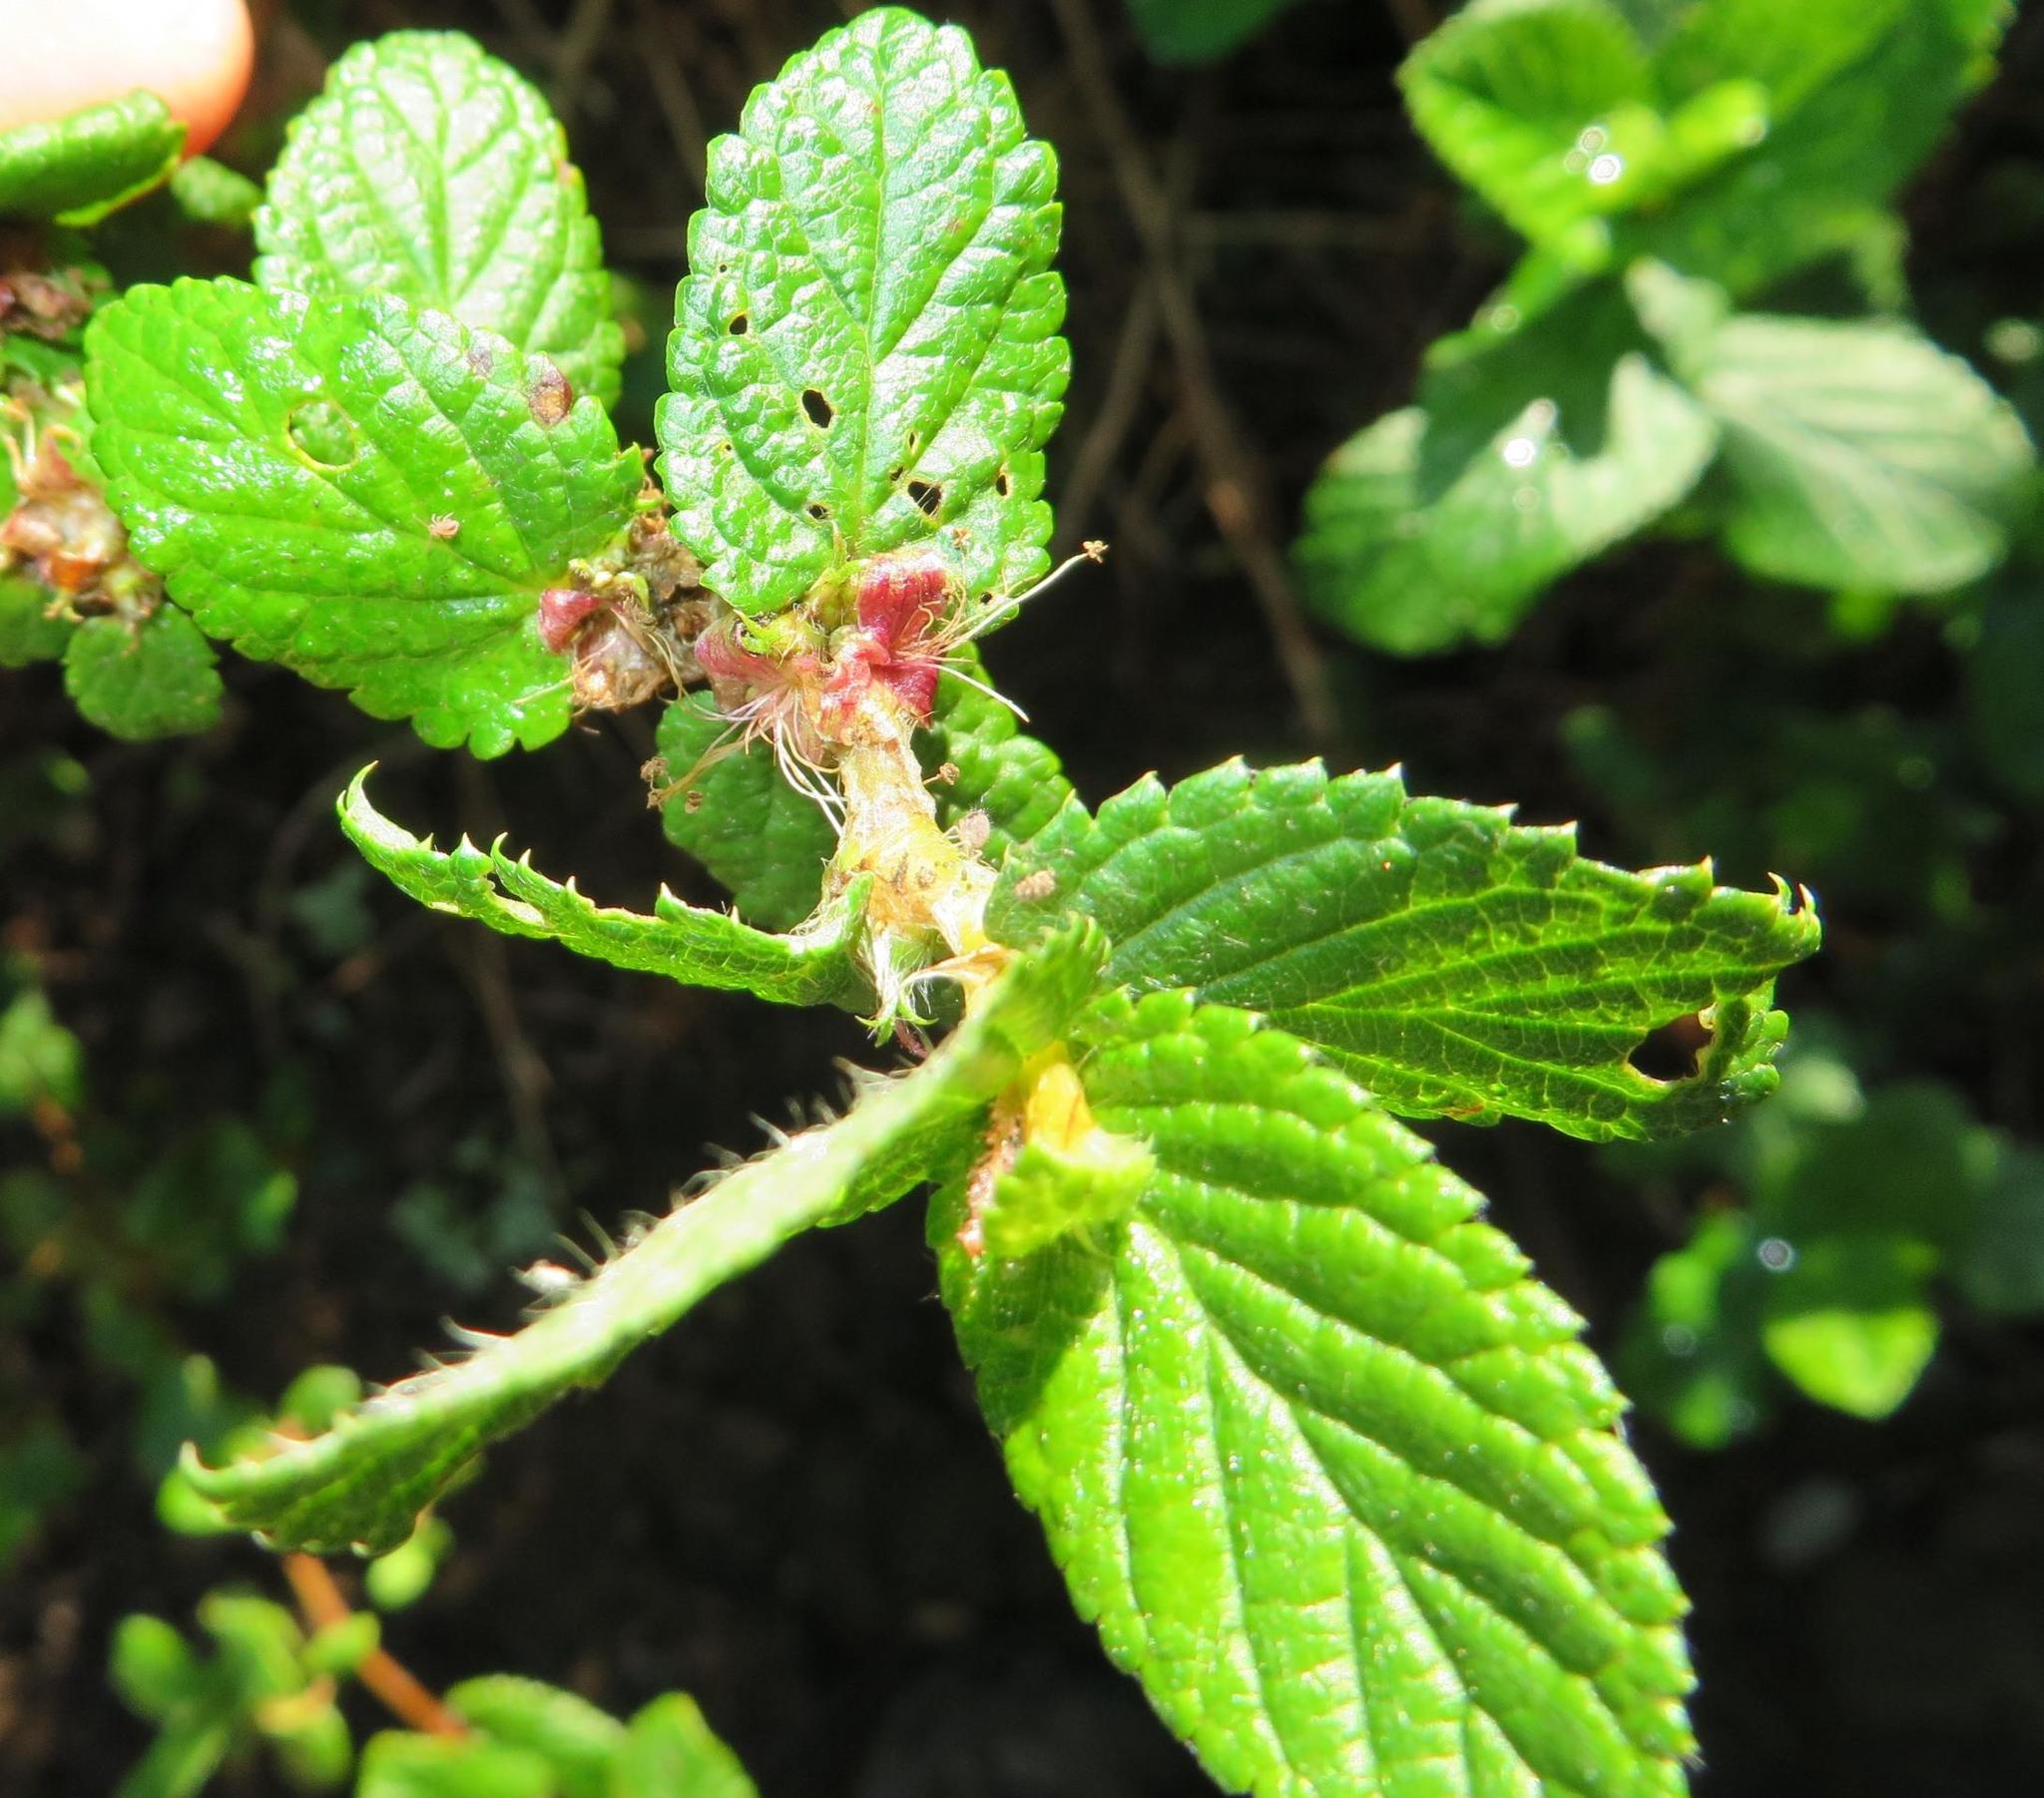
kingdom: Plantae
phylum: Tracheophyta
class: Magnoliopsida
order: Rosales
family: Rosaceae
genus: Cliffortia
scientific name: Cliffortia odorata
